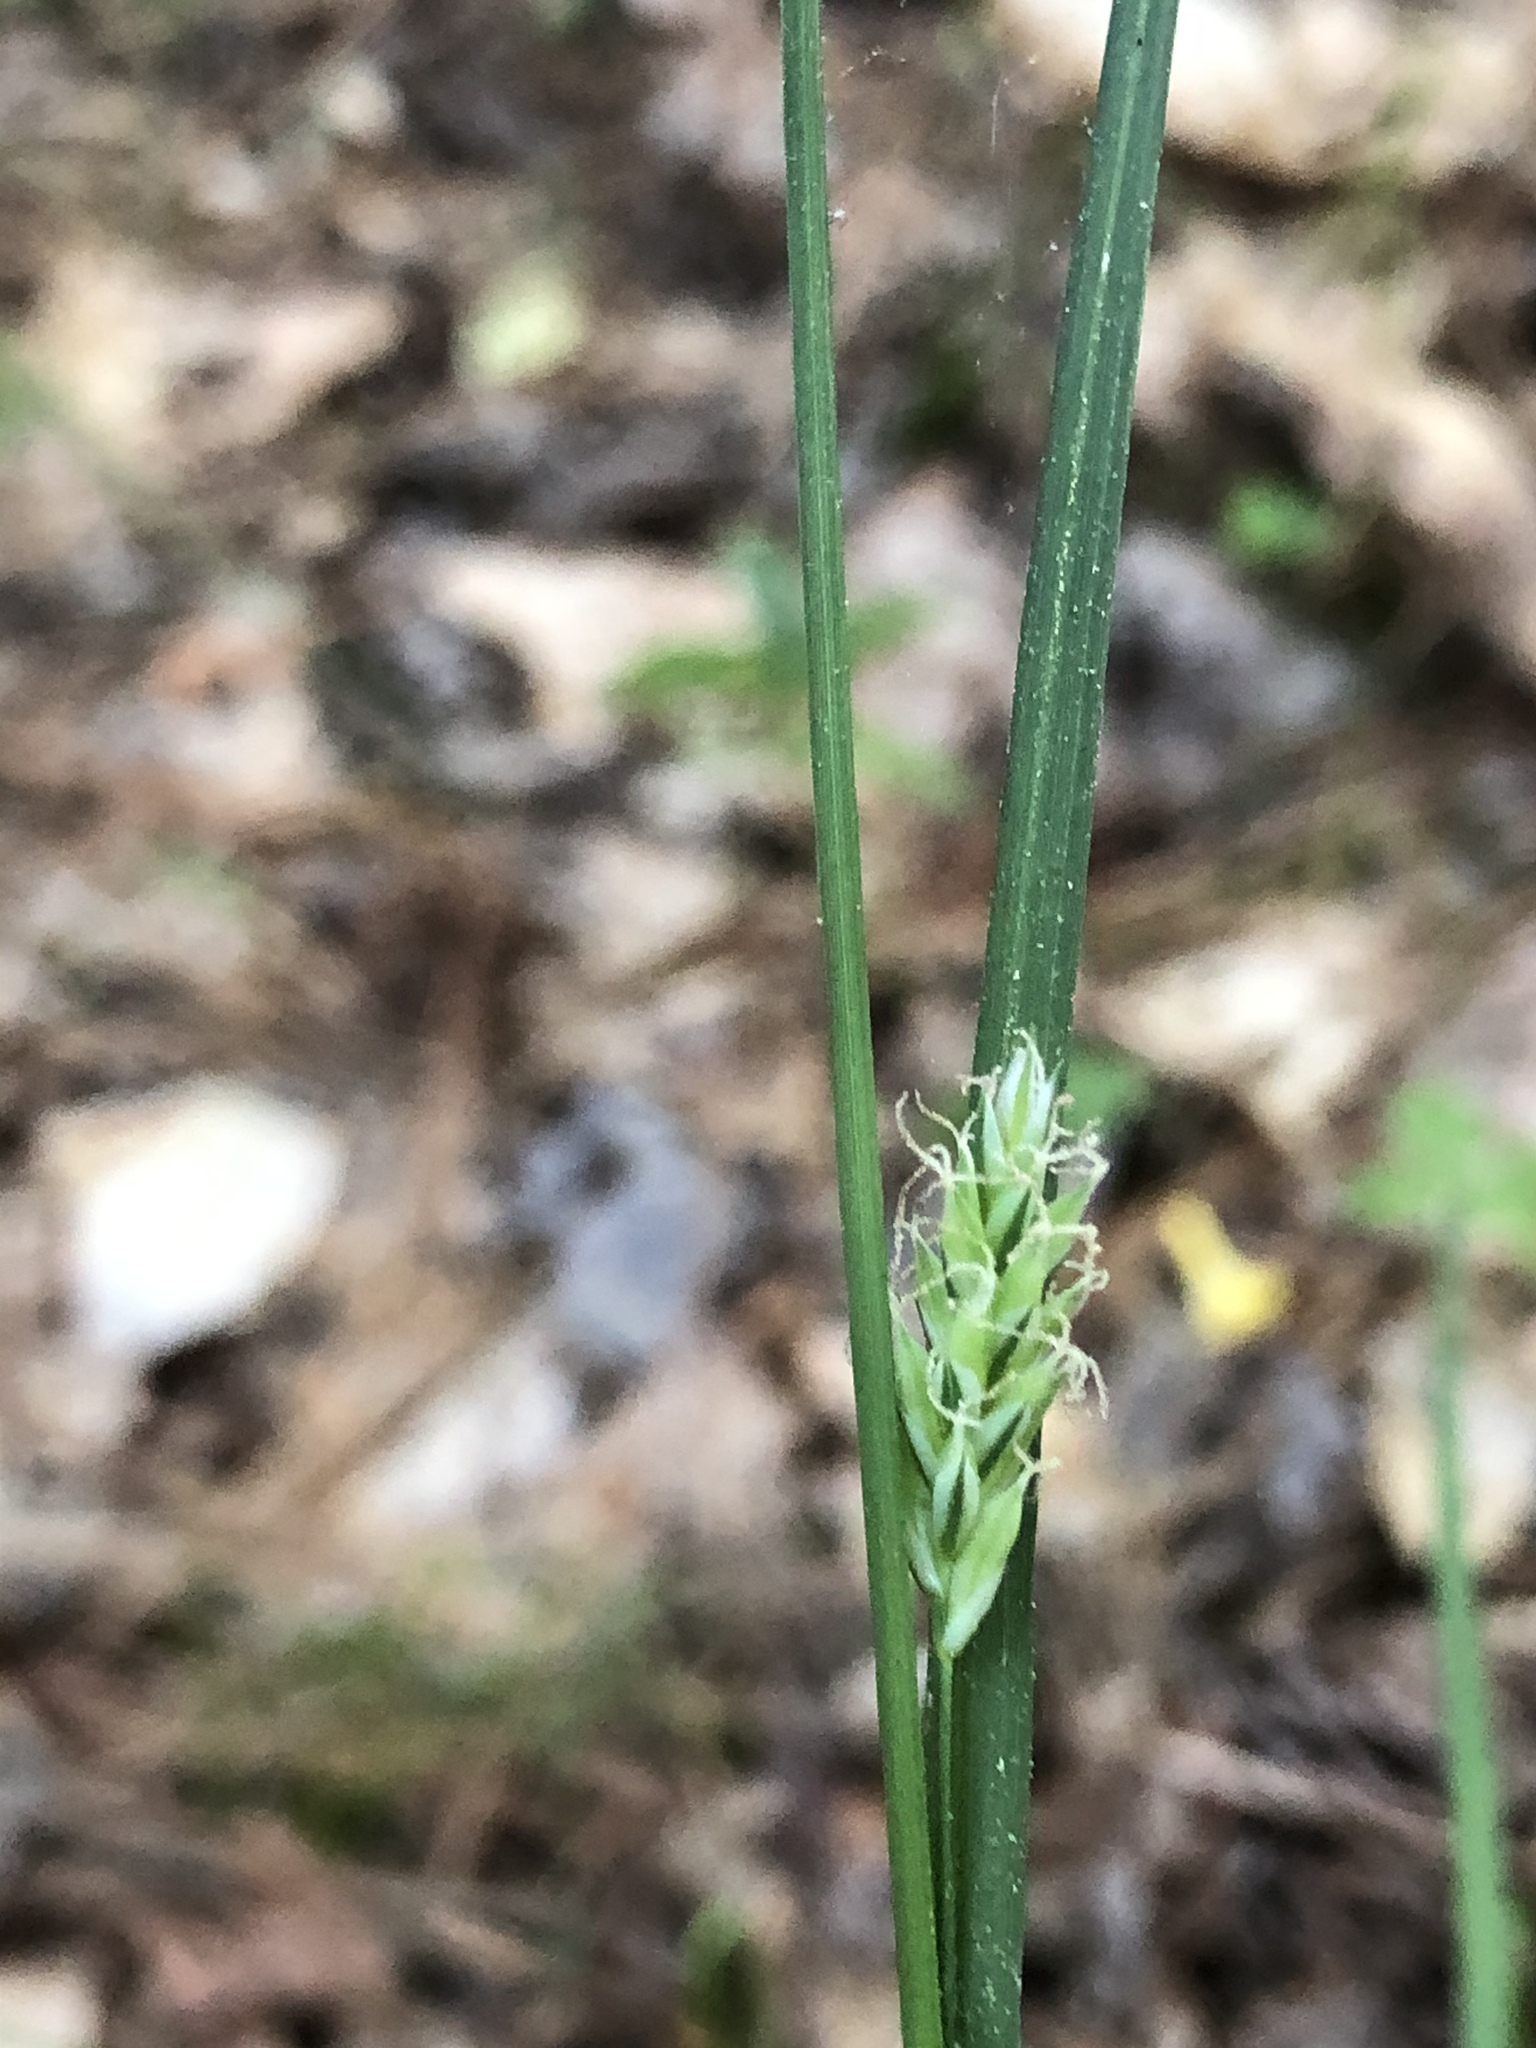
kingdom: Plantae
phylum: Tracheophyta
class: Liliopsida
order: Poales
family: Cyperaceae
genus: Carex
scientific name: Carex styloflexa
